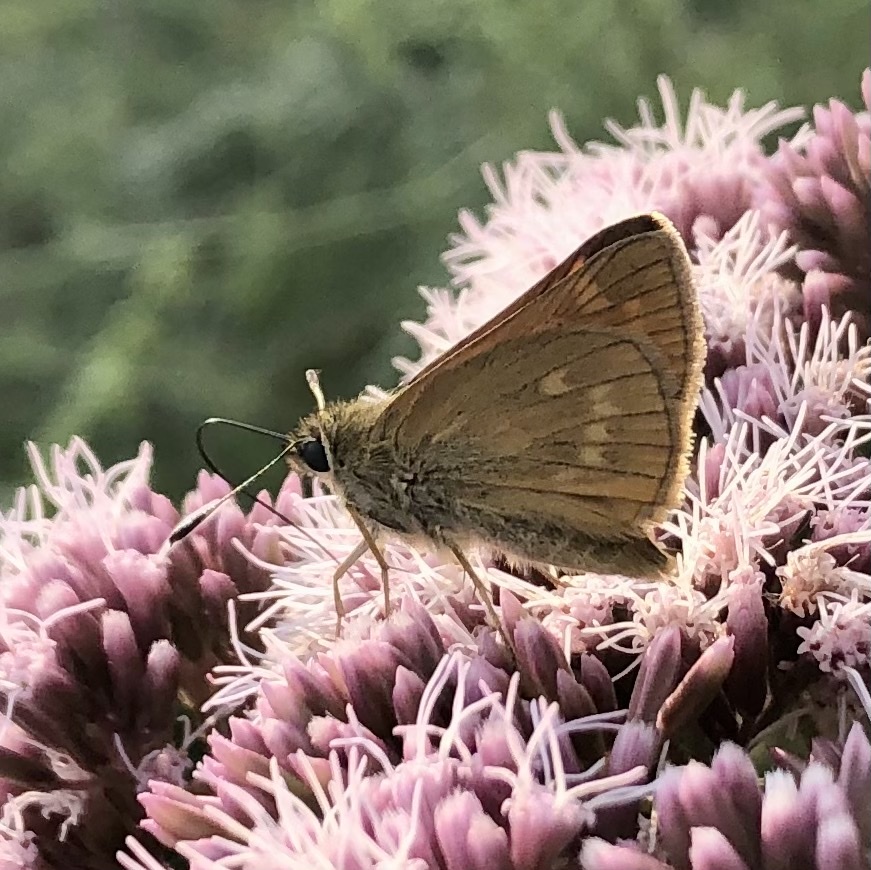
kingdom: Animalia
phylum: Arthropoda
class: Insecta
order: Lepidoptera
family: Hesperiidae
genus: Ochlodes
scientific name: Ochlodes venata
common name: Large skipper
